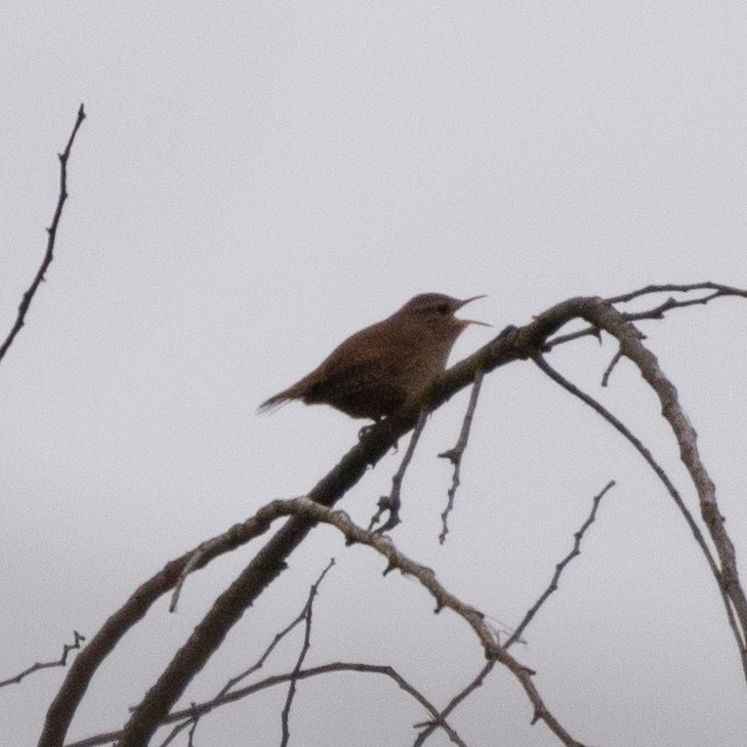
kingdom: Animalia
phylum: Chordata
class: Aves
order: Passeriformes
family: Troglodytidae
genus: Troglodytes
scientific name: Troglodytes troglodytes
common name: Eurasian wren
